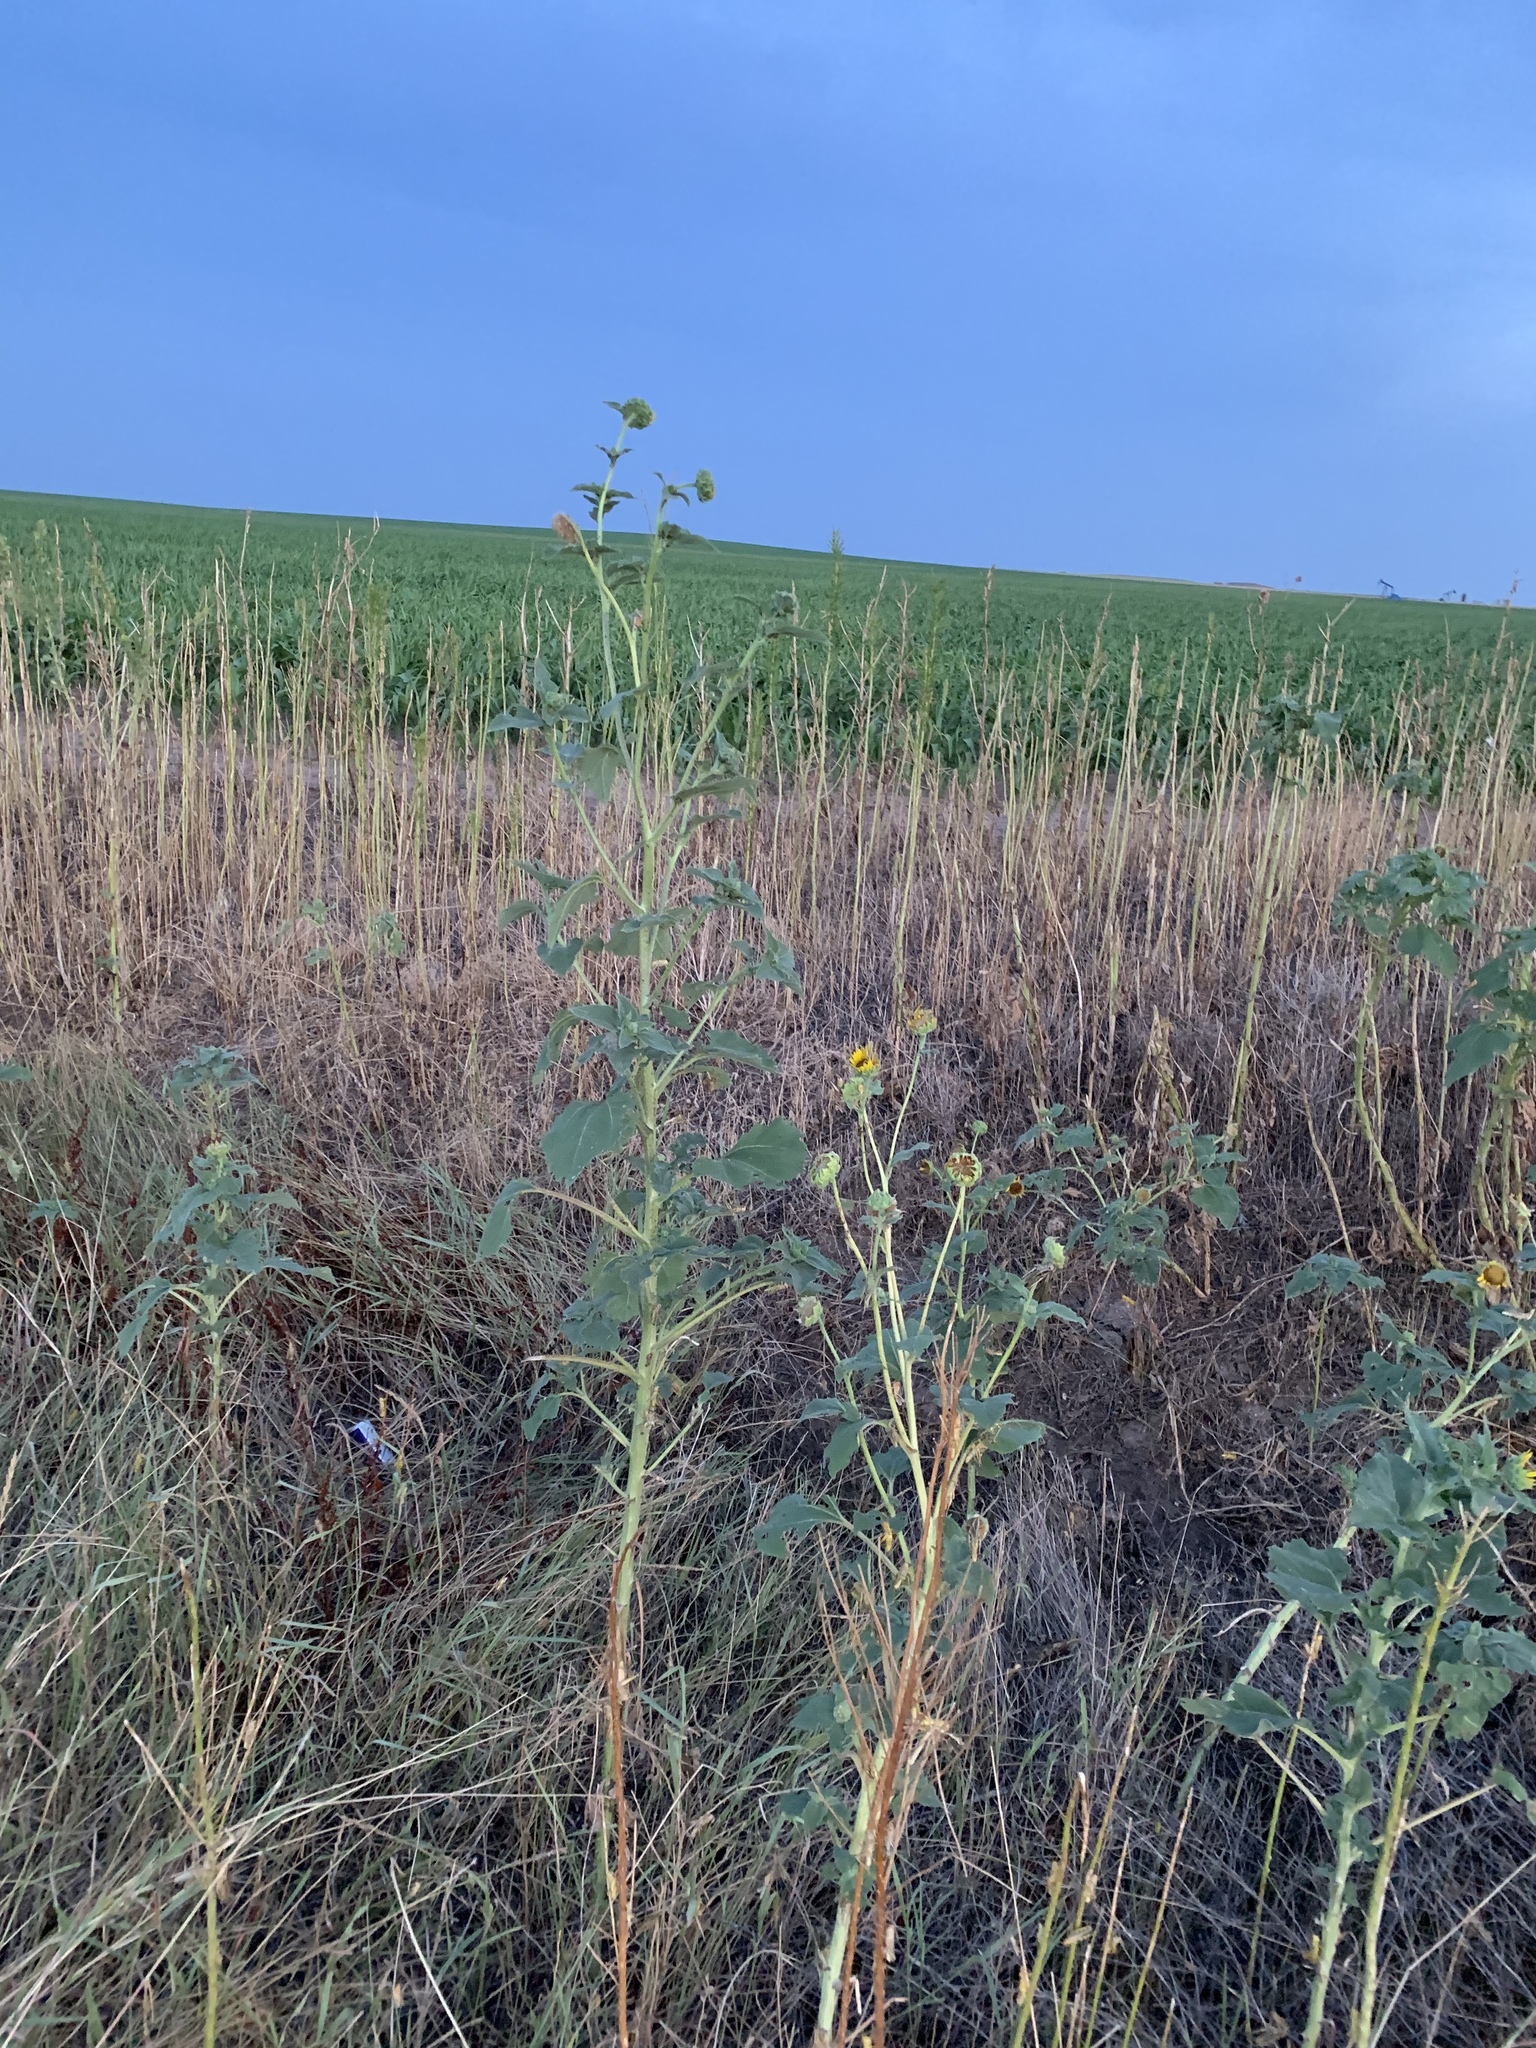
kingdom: Plantae
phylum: Tracheophyta
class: Magnoliopsida
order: Asterales
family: Asteraceae
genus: Helianthus
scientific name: Helianthus annuus
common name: Sunflower
